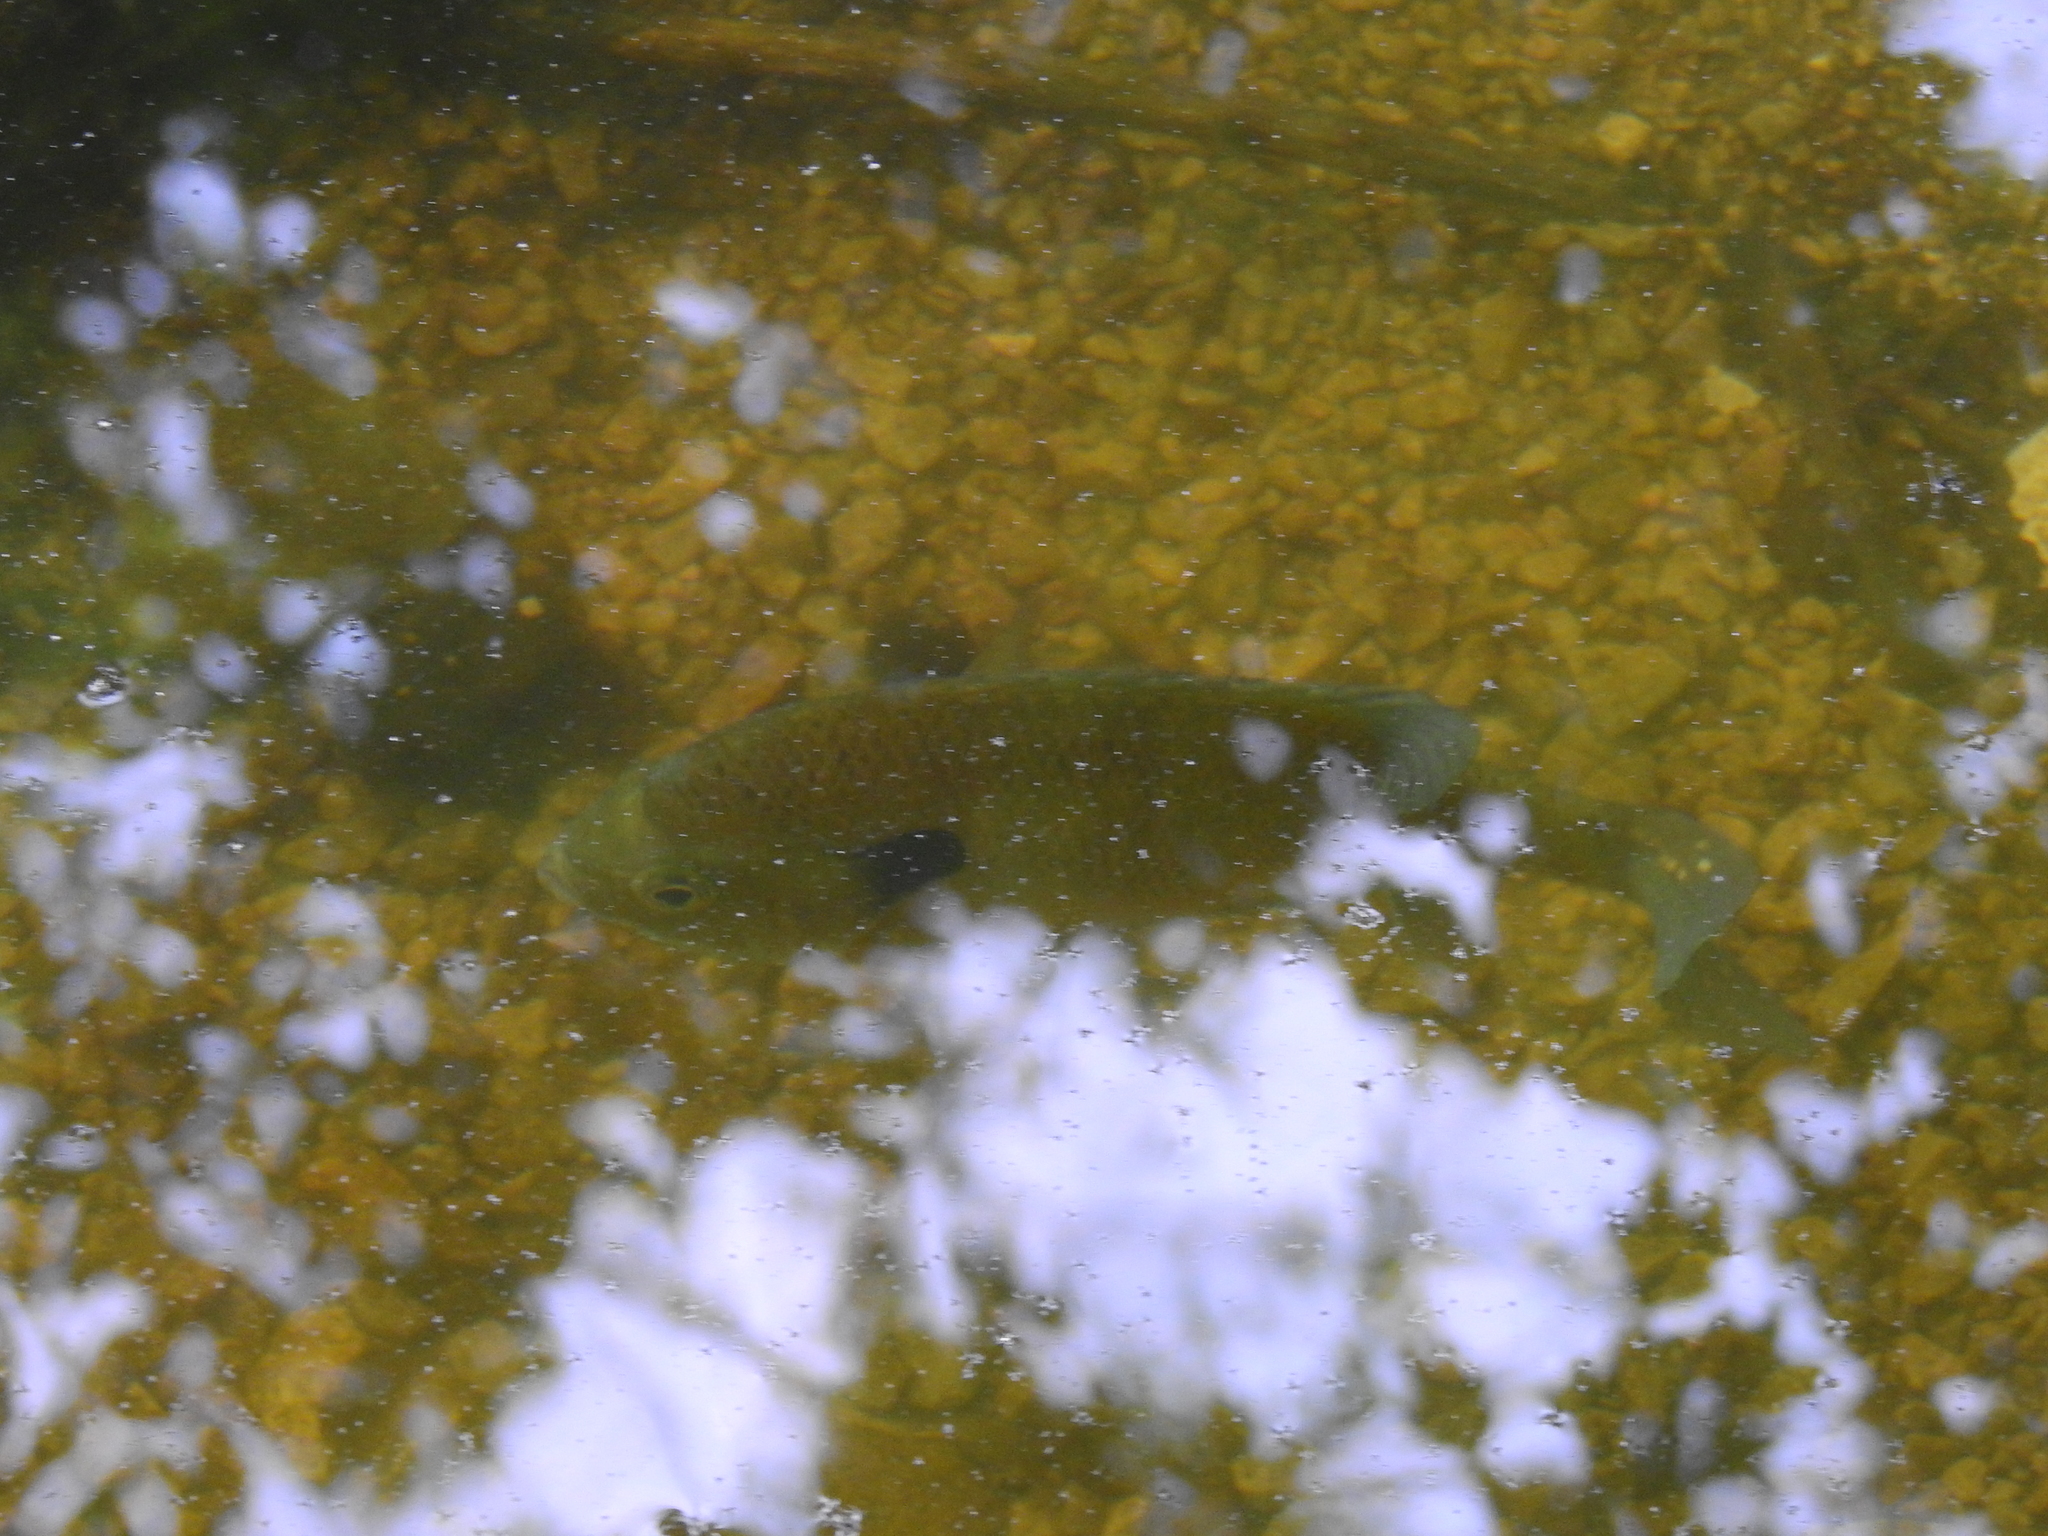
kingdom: Animalia
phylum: Chordata
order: Perciformes
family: Centrarchidae
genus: Lepomis
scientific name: Lepomis macrochirus
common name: Bluegill
